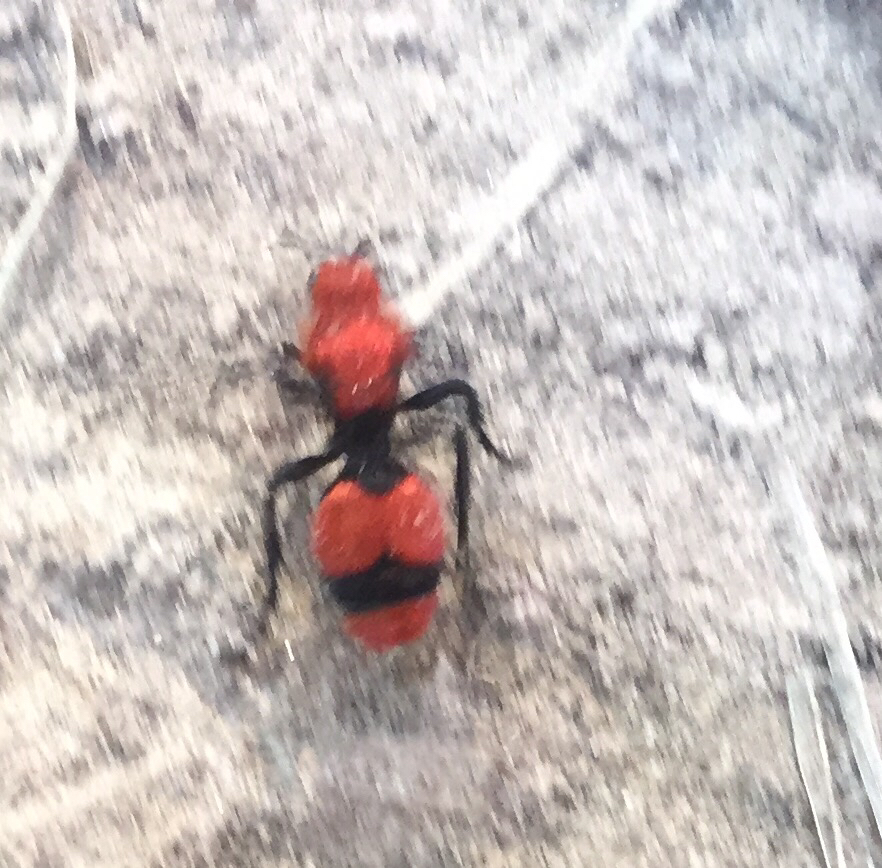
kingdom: Animalia
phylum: Arthropoda
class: Insecta
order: Hymenoptera
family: Mutillidae
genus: Dasymutilla
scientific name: Dasymutilla occidentalis
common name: Common eastern velvet ant
